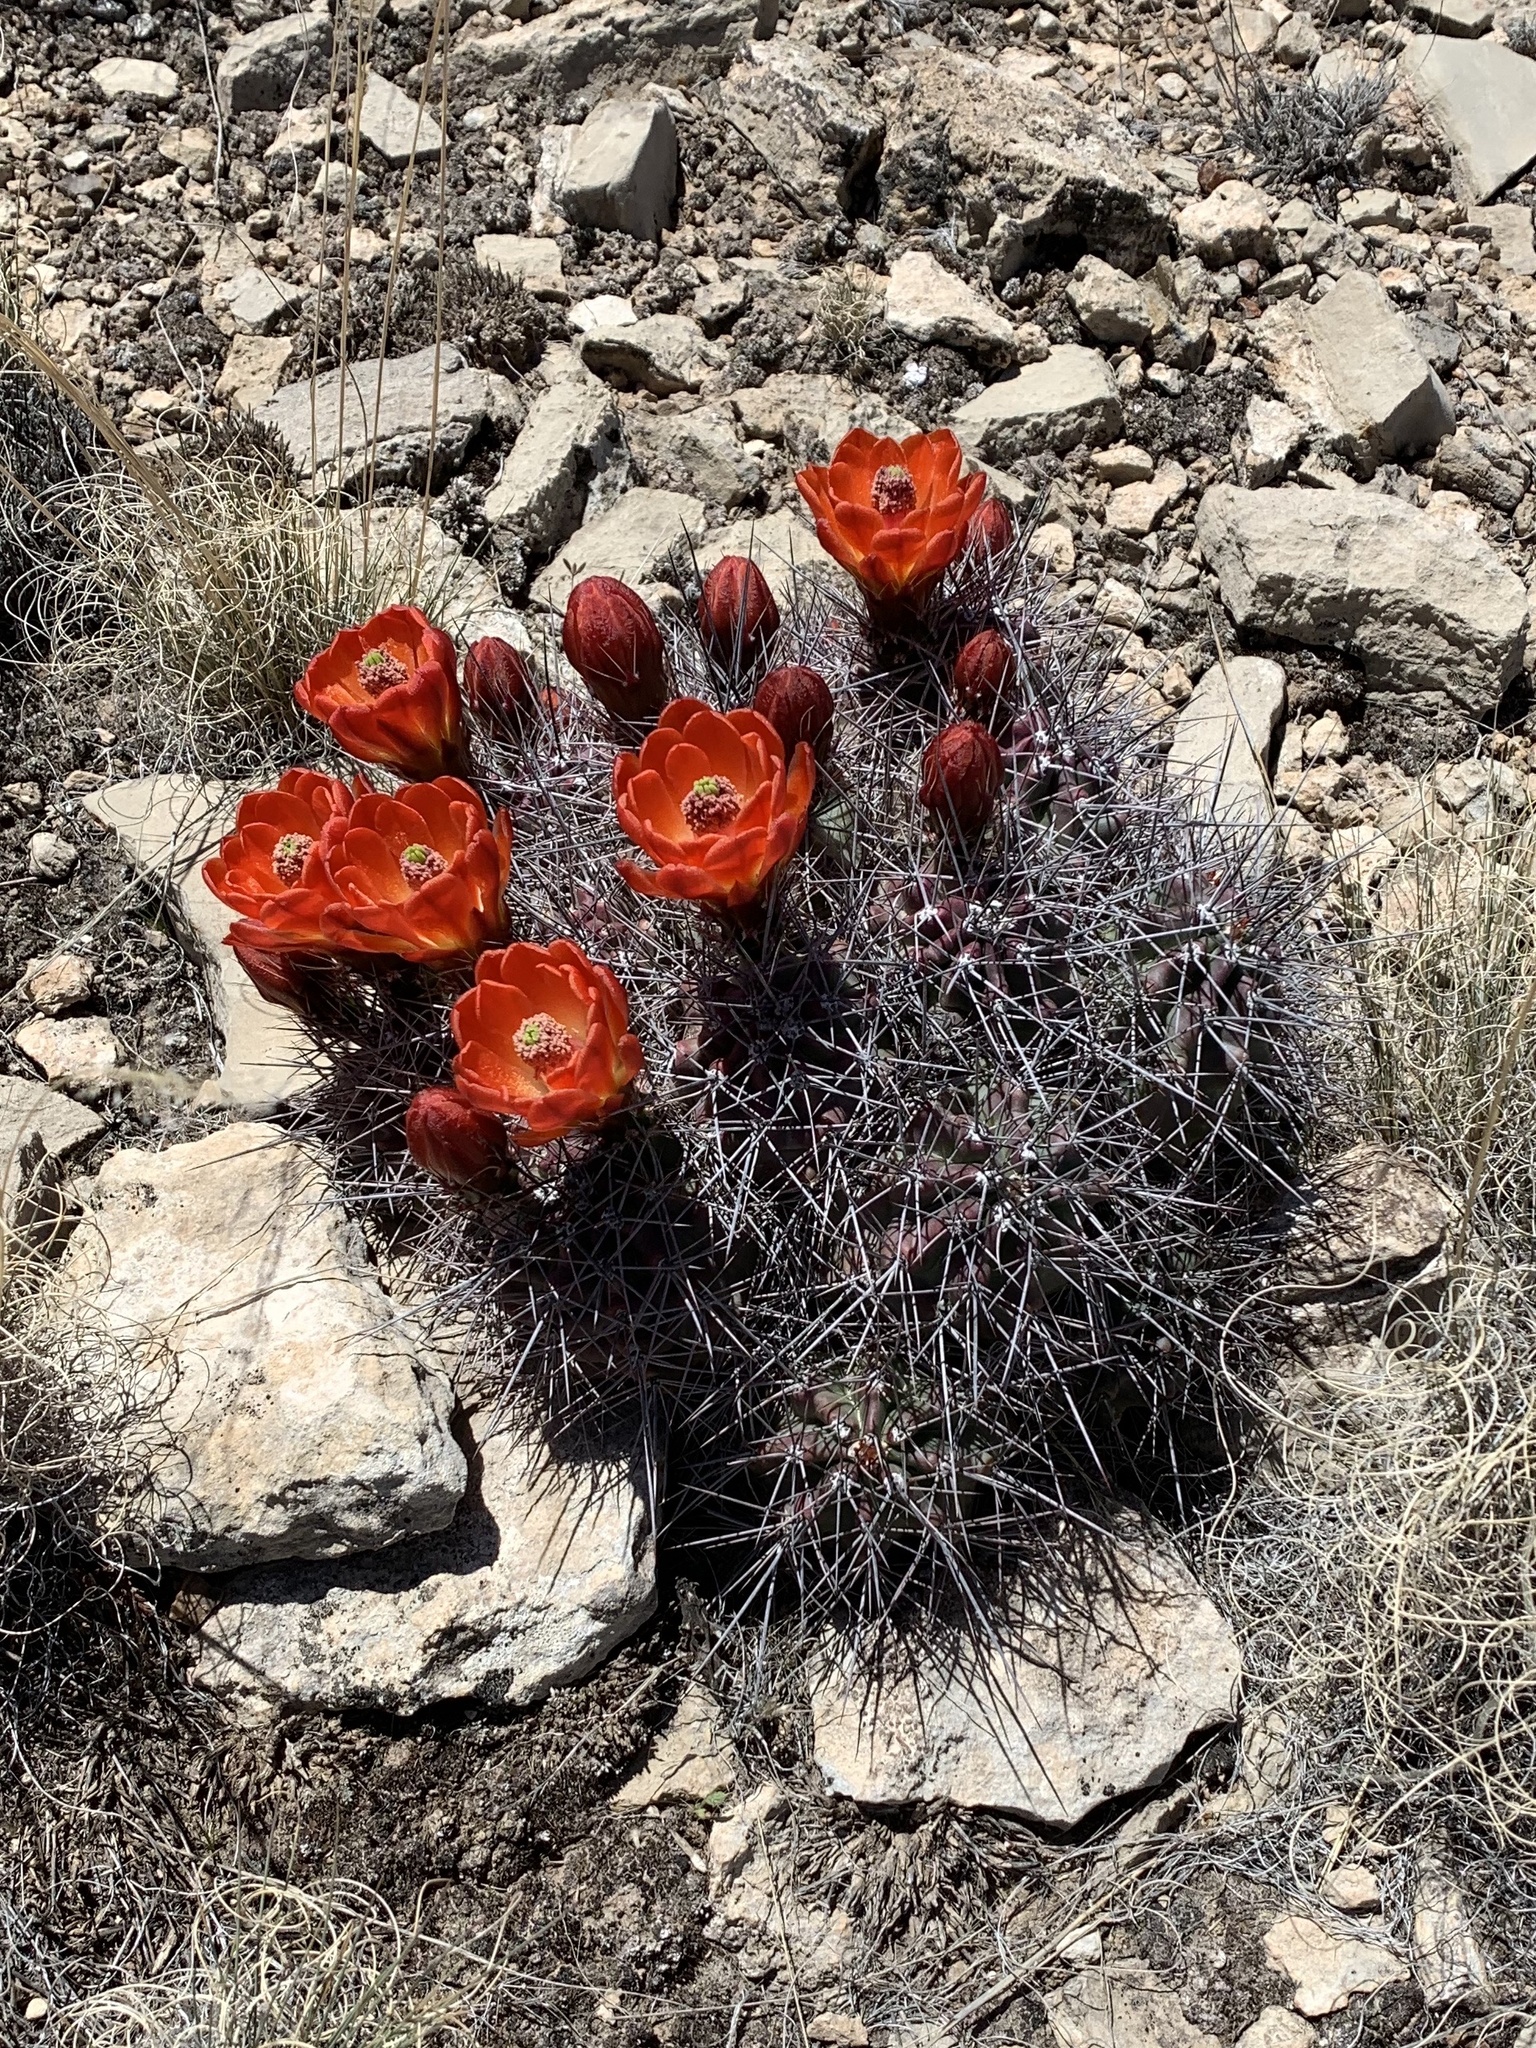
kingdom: Plantae
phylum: Tracheophyta
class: Magnoliopsida
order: Caryophyllales
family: Cactaceae
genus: Echinocereus
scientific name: Echinocereus coccineus
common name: Scarlet hedgehog cactus
